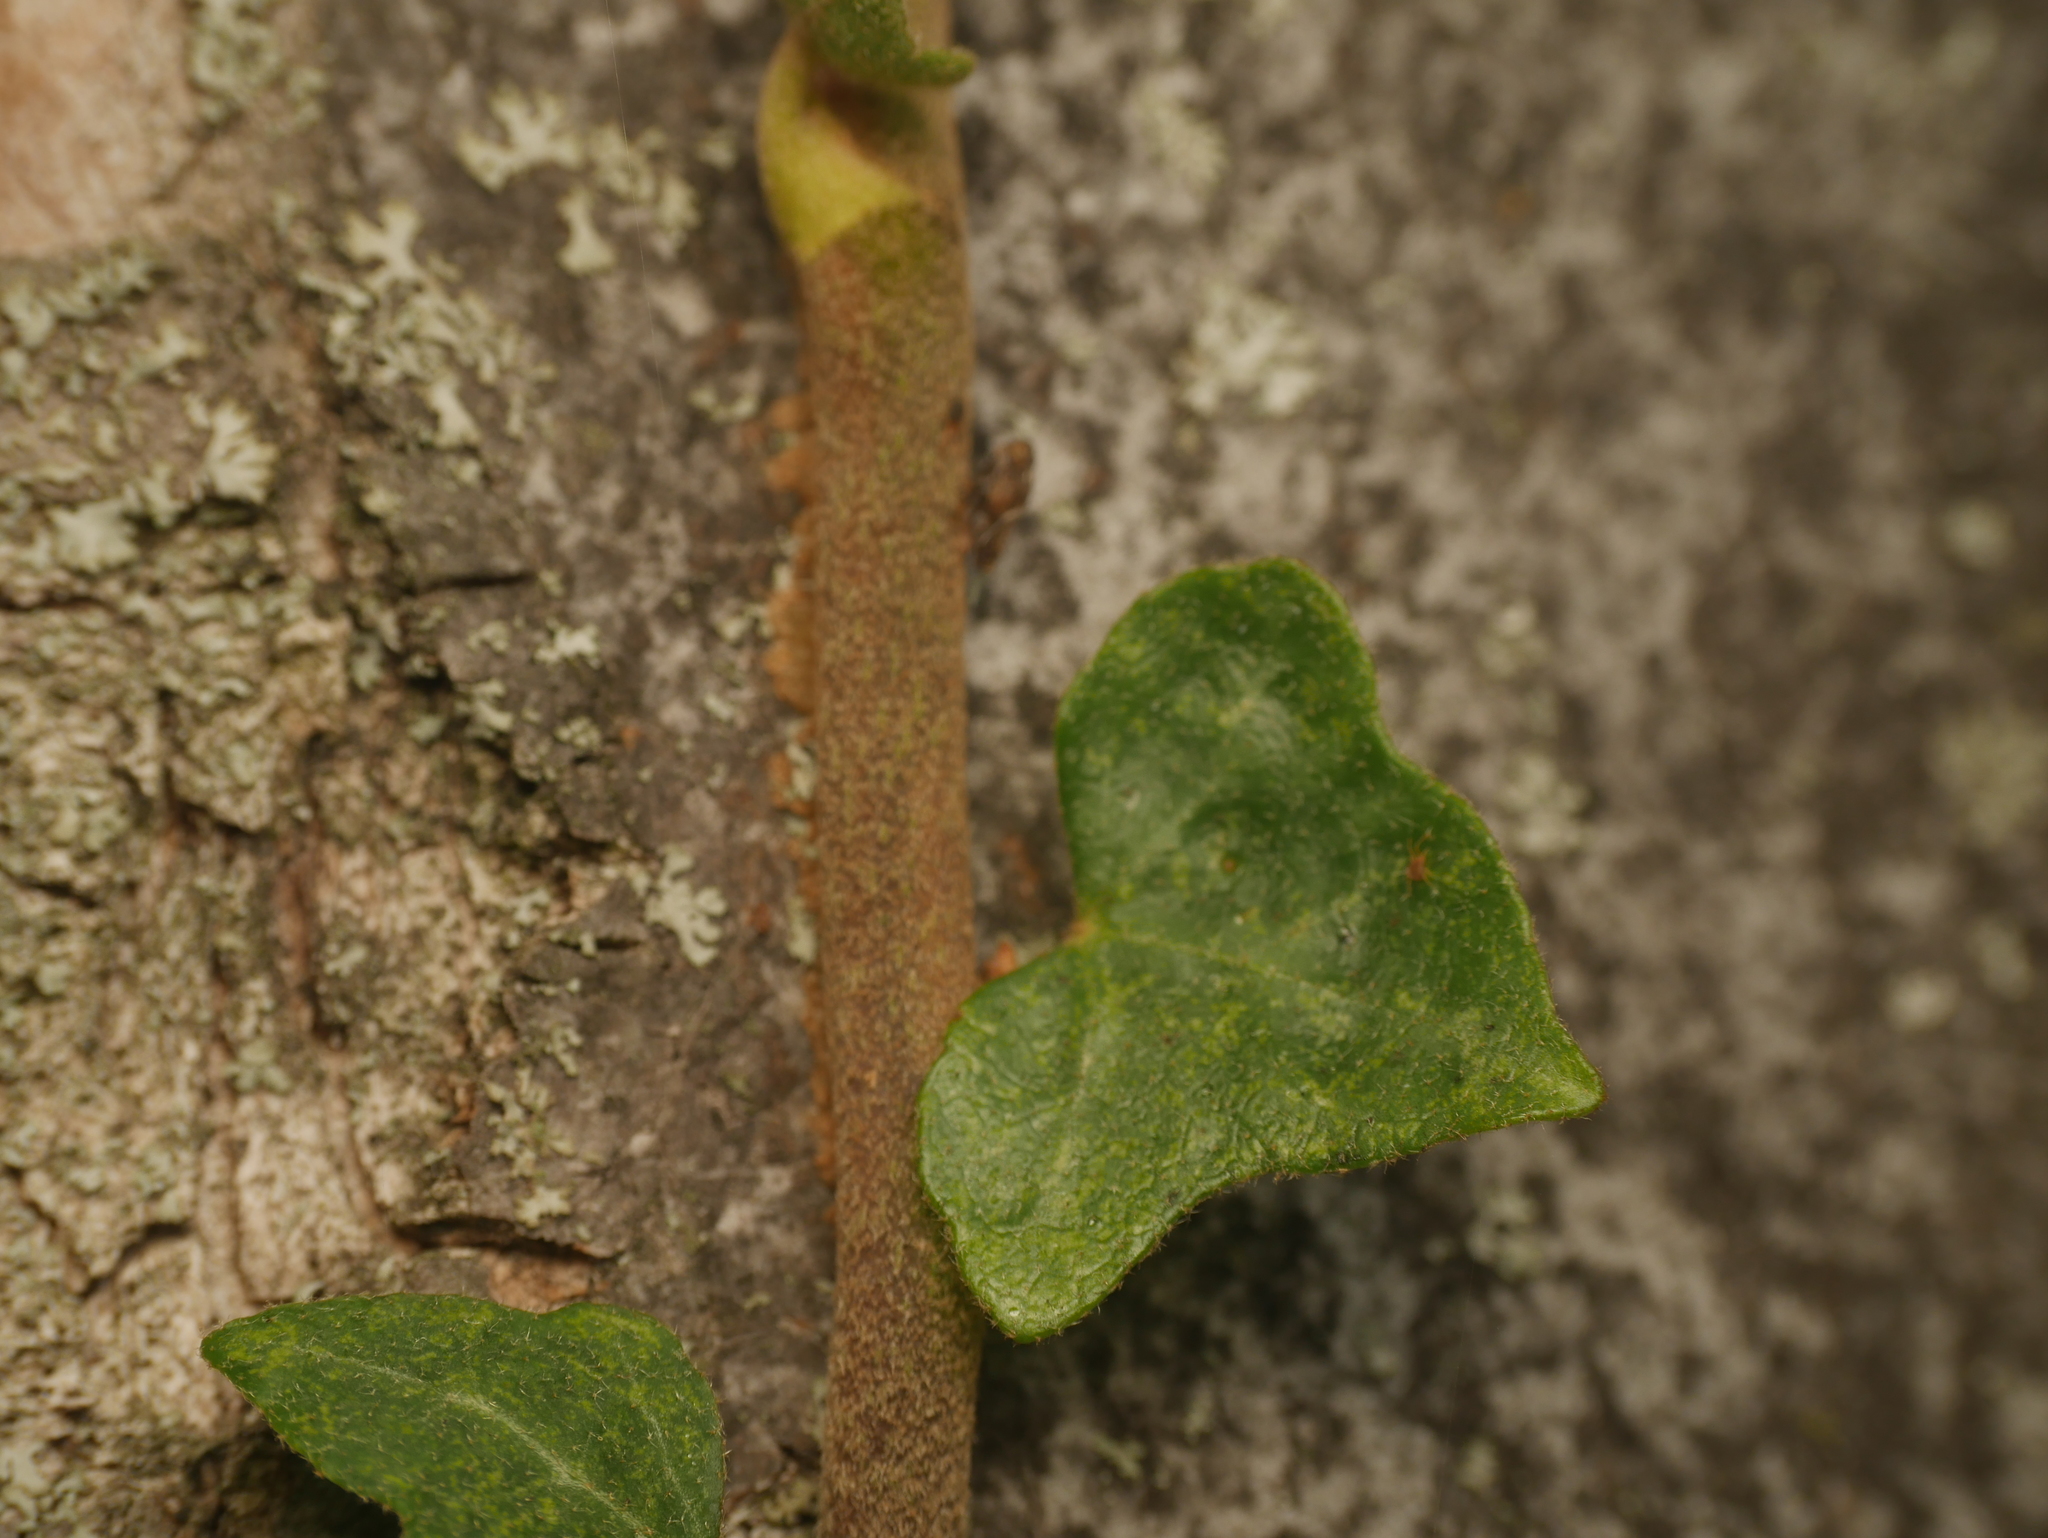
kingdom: Plantae
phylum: Tracheophyta
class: Magnoliopsida
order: Apiales
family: Araliaceae
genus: Hedera
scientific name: Hedera helix
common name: Ivy
